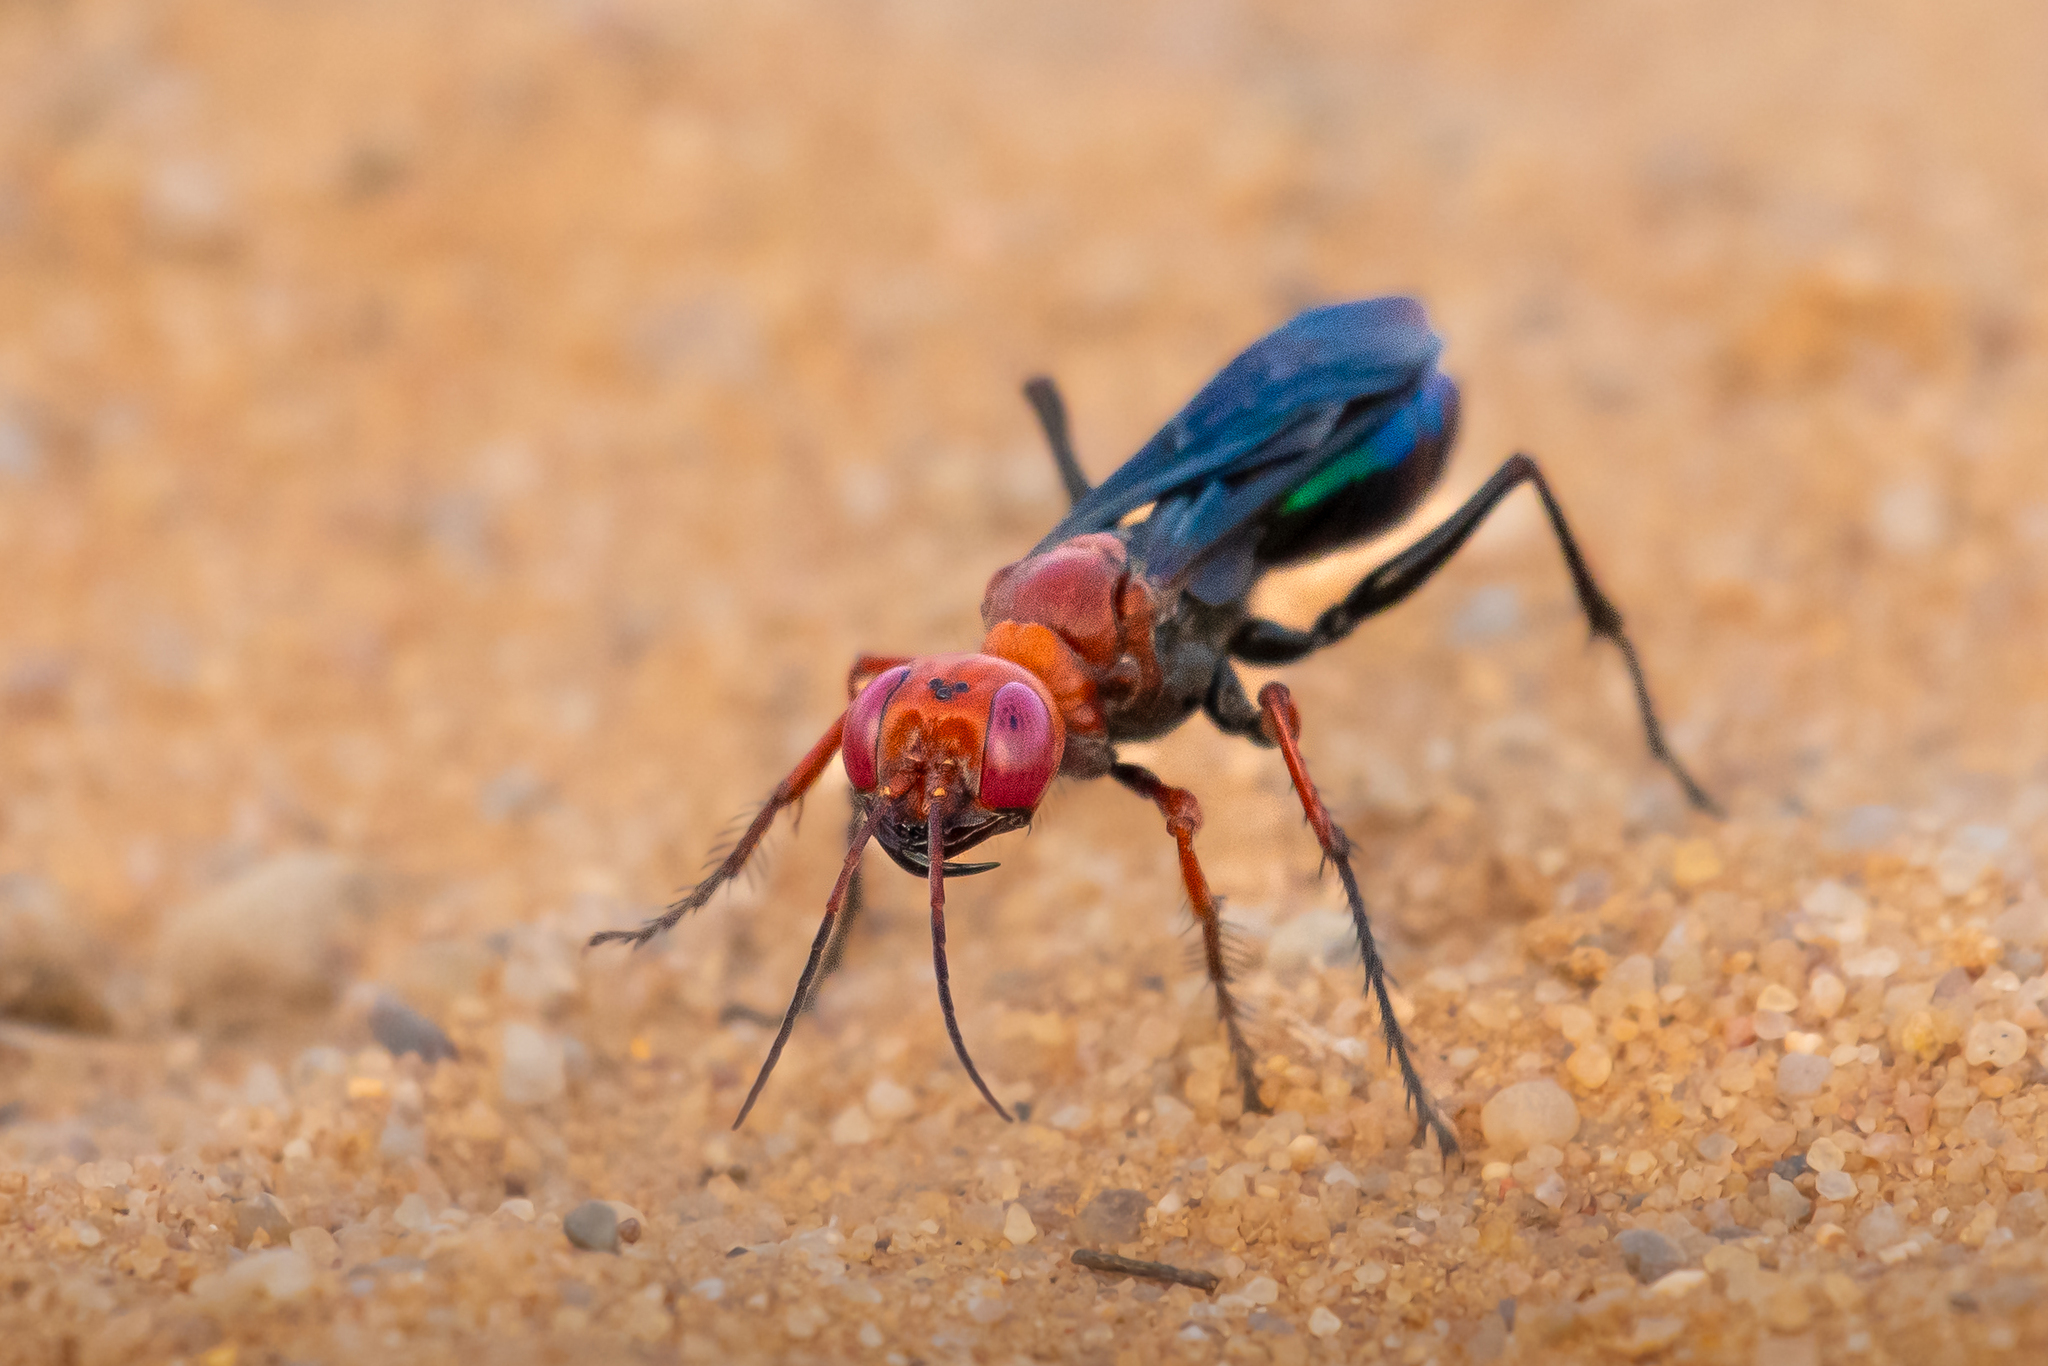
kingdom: Animalia
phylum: Arthropoda
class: Insecta
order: Hymenoptera
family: Sphecidae
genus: Chlorion
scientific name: Chlorion regale
